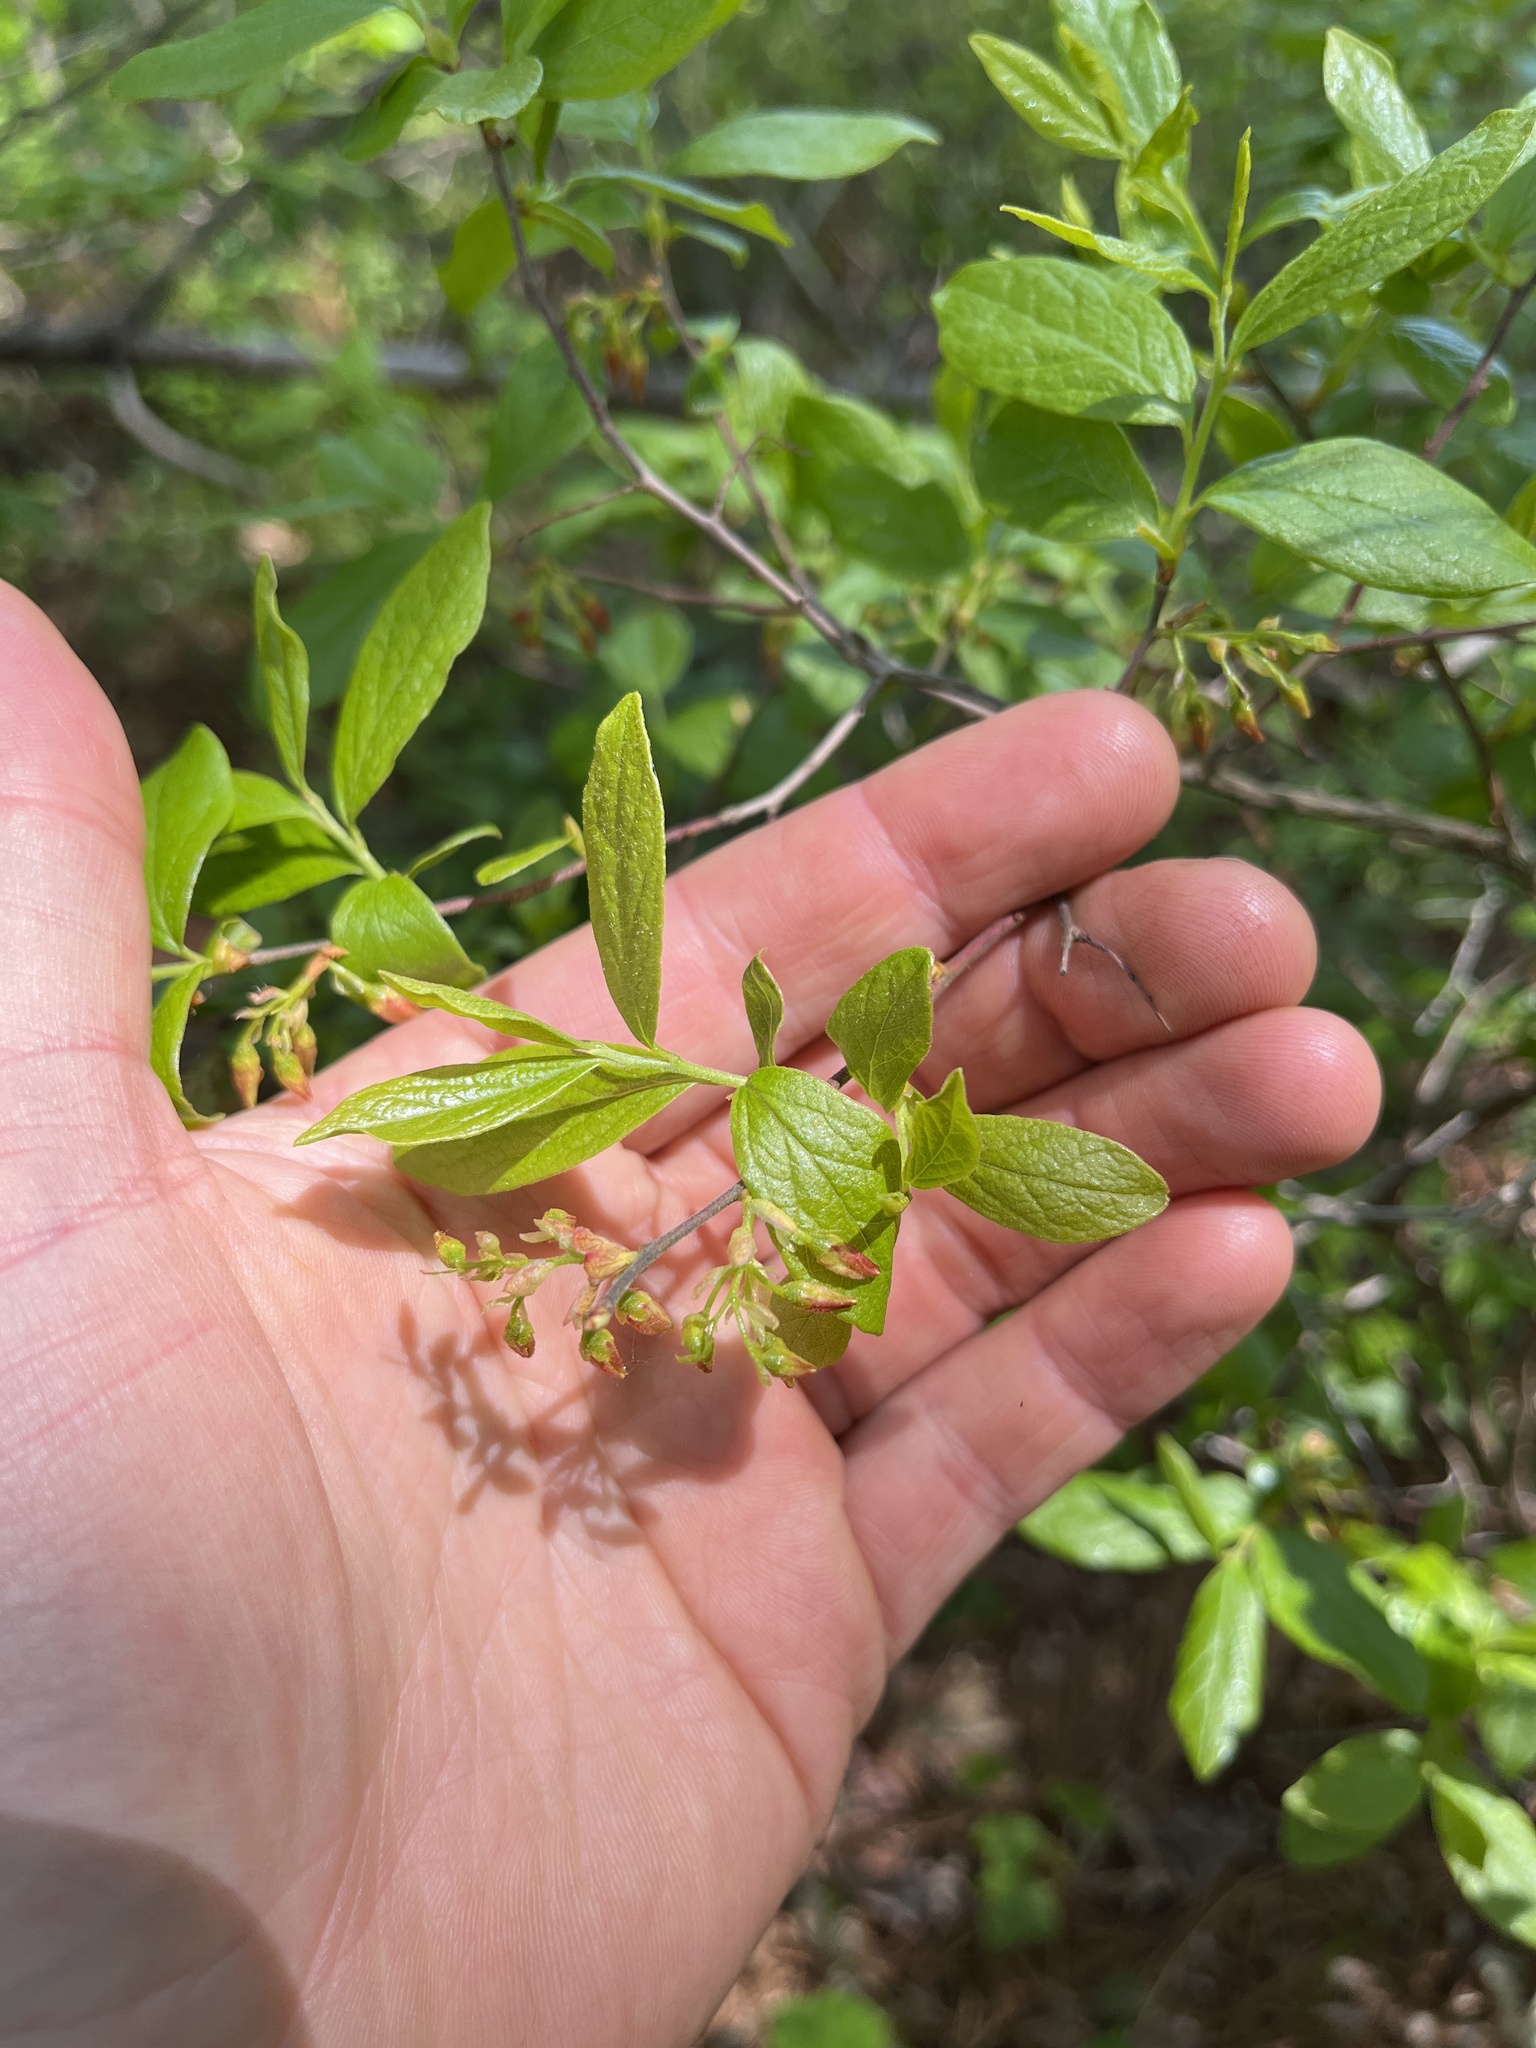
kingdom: Plantae
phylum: Tracheophyta
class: Magnoliopsida
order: Ericales
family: Ericaceae
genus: Gaylussacia
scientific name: Gaylussacia baccata
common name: Black huckleberry
